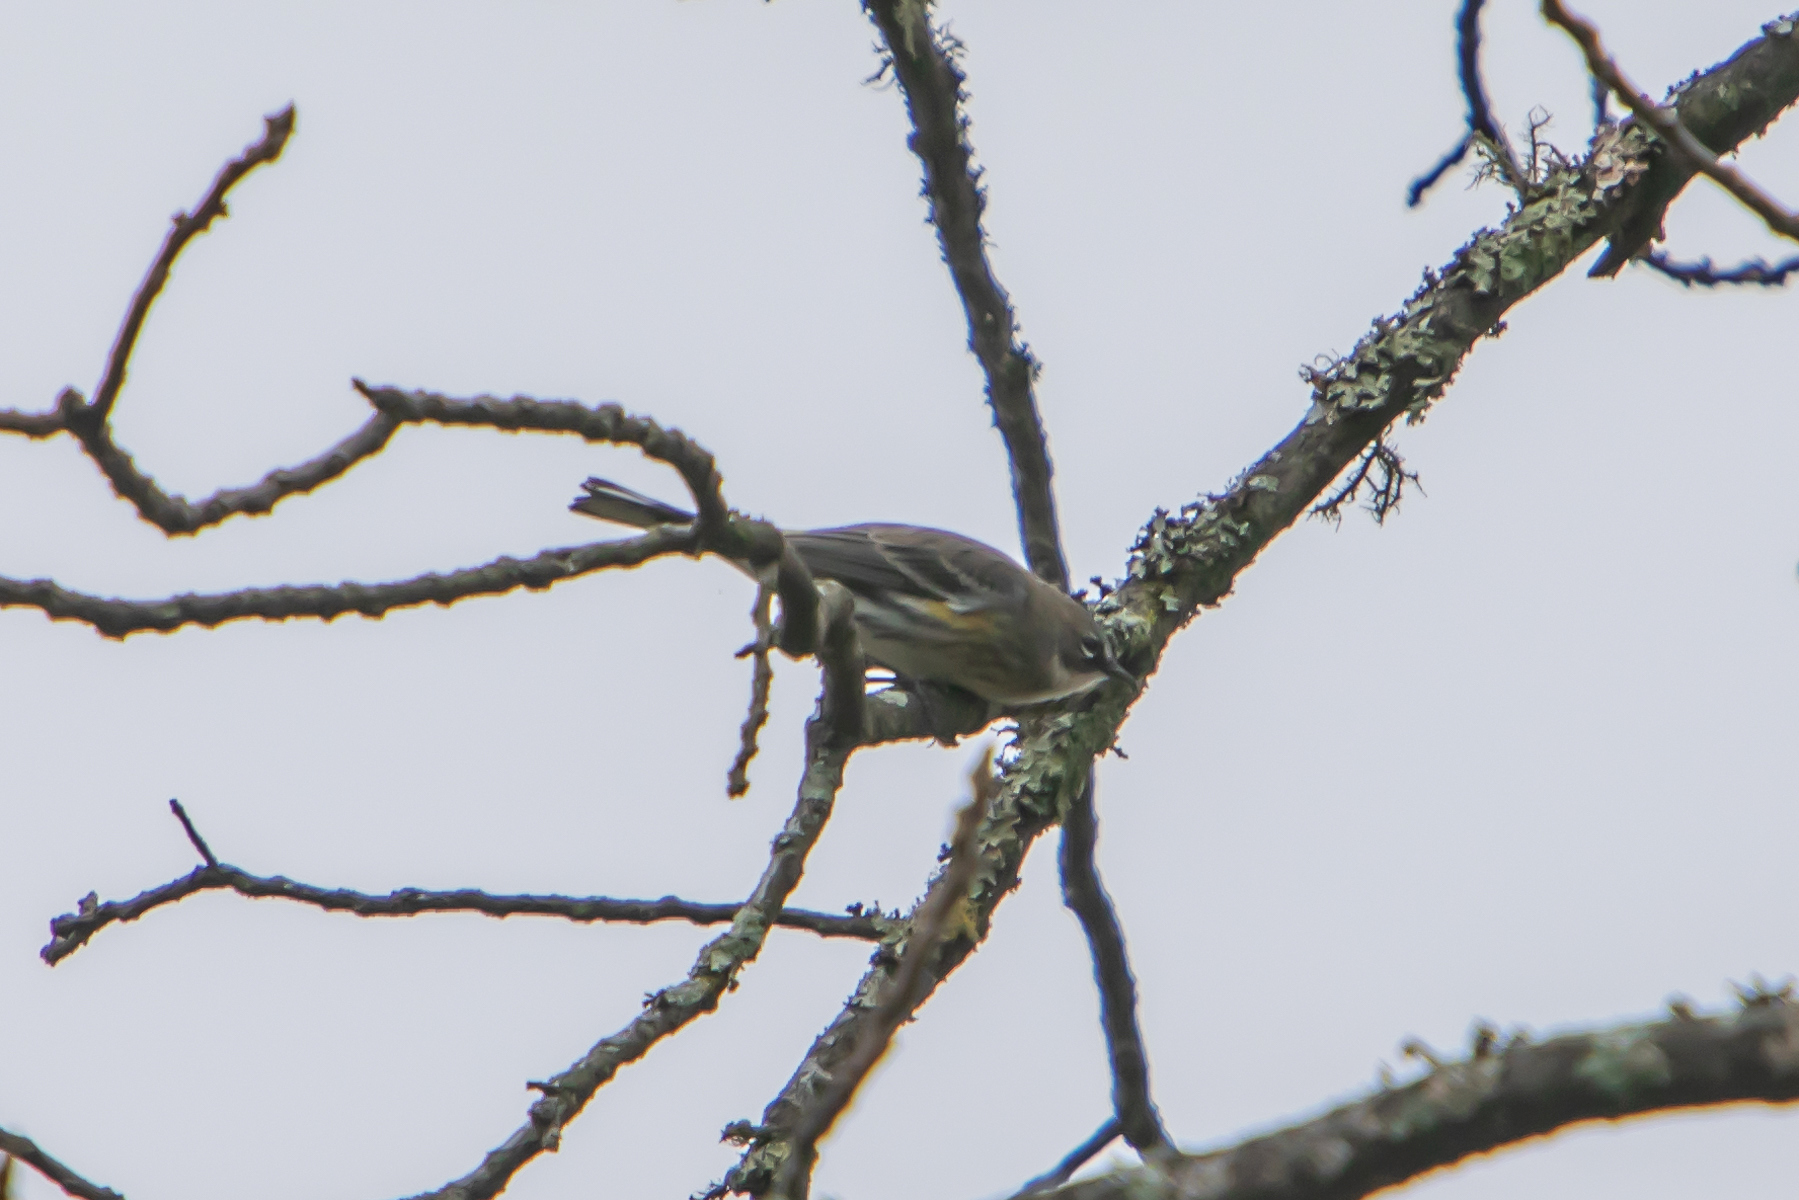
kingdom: Animalia
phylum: Chordata
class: Aves
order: Passeriformes
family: Parulidae
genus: Setophaga
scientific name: Setophaga coronata
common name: Myrtle warbler
